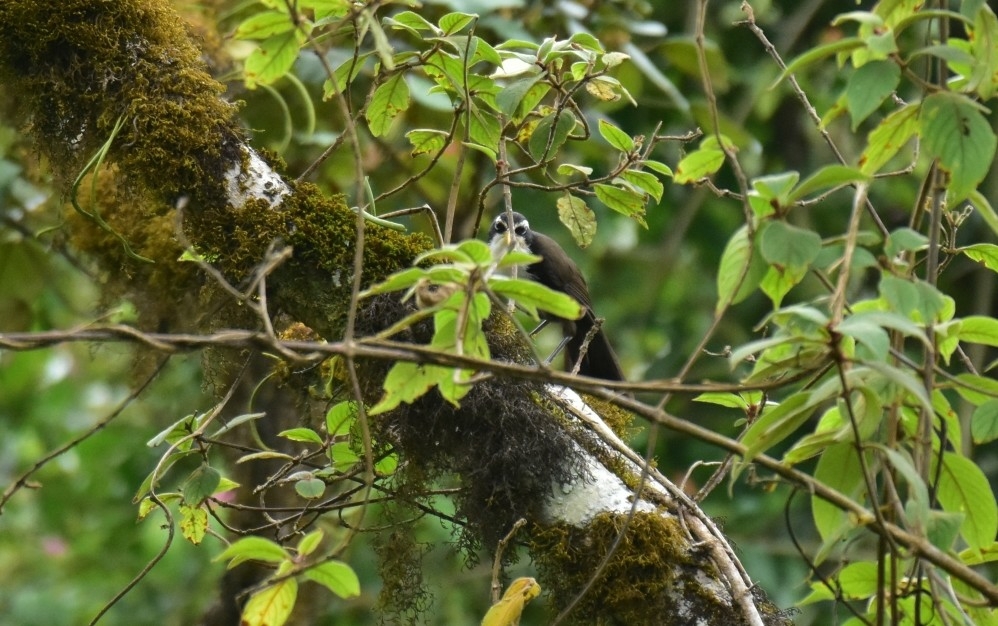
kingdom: Animalia
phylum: Chordata
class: Aves
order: Passeriformes
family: Timaliidae
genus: Pomatorhinus
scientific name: Pomatorhinus horsfieldii
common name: Indian scimitar babbler
